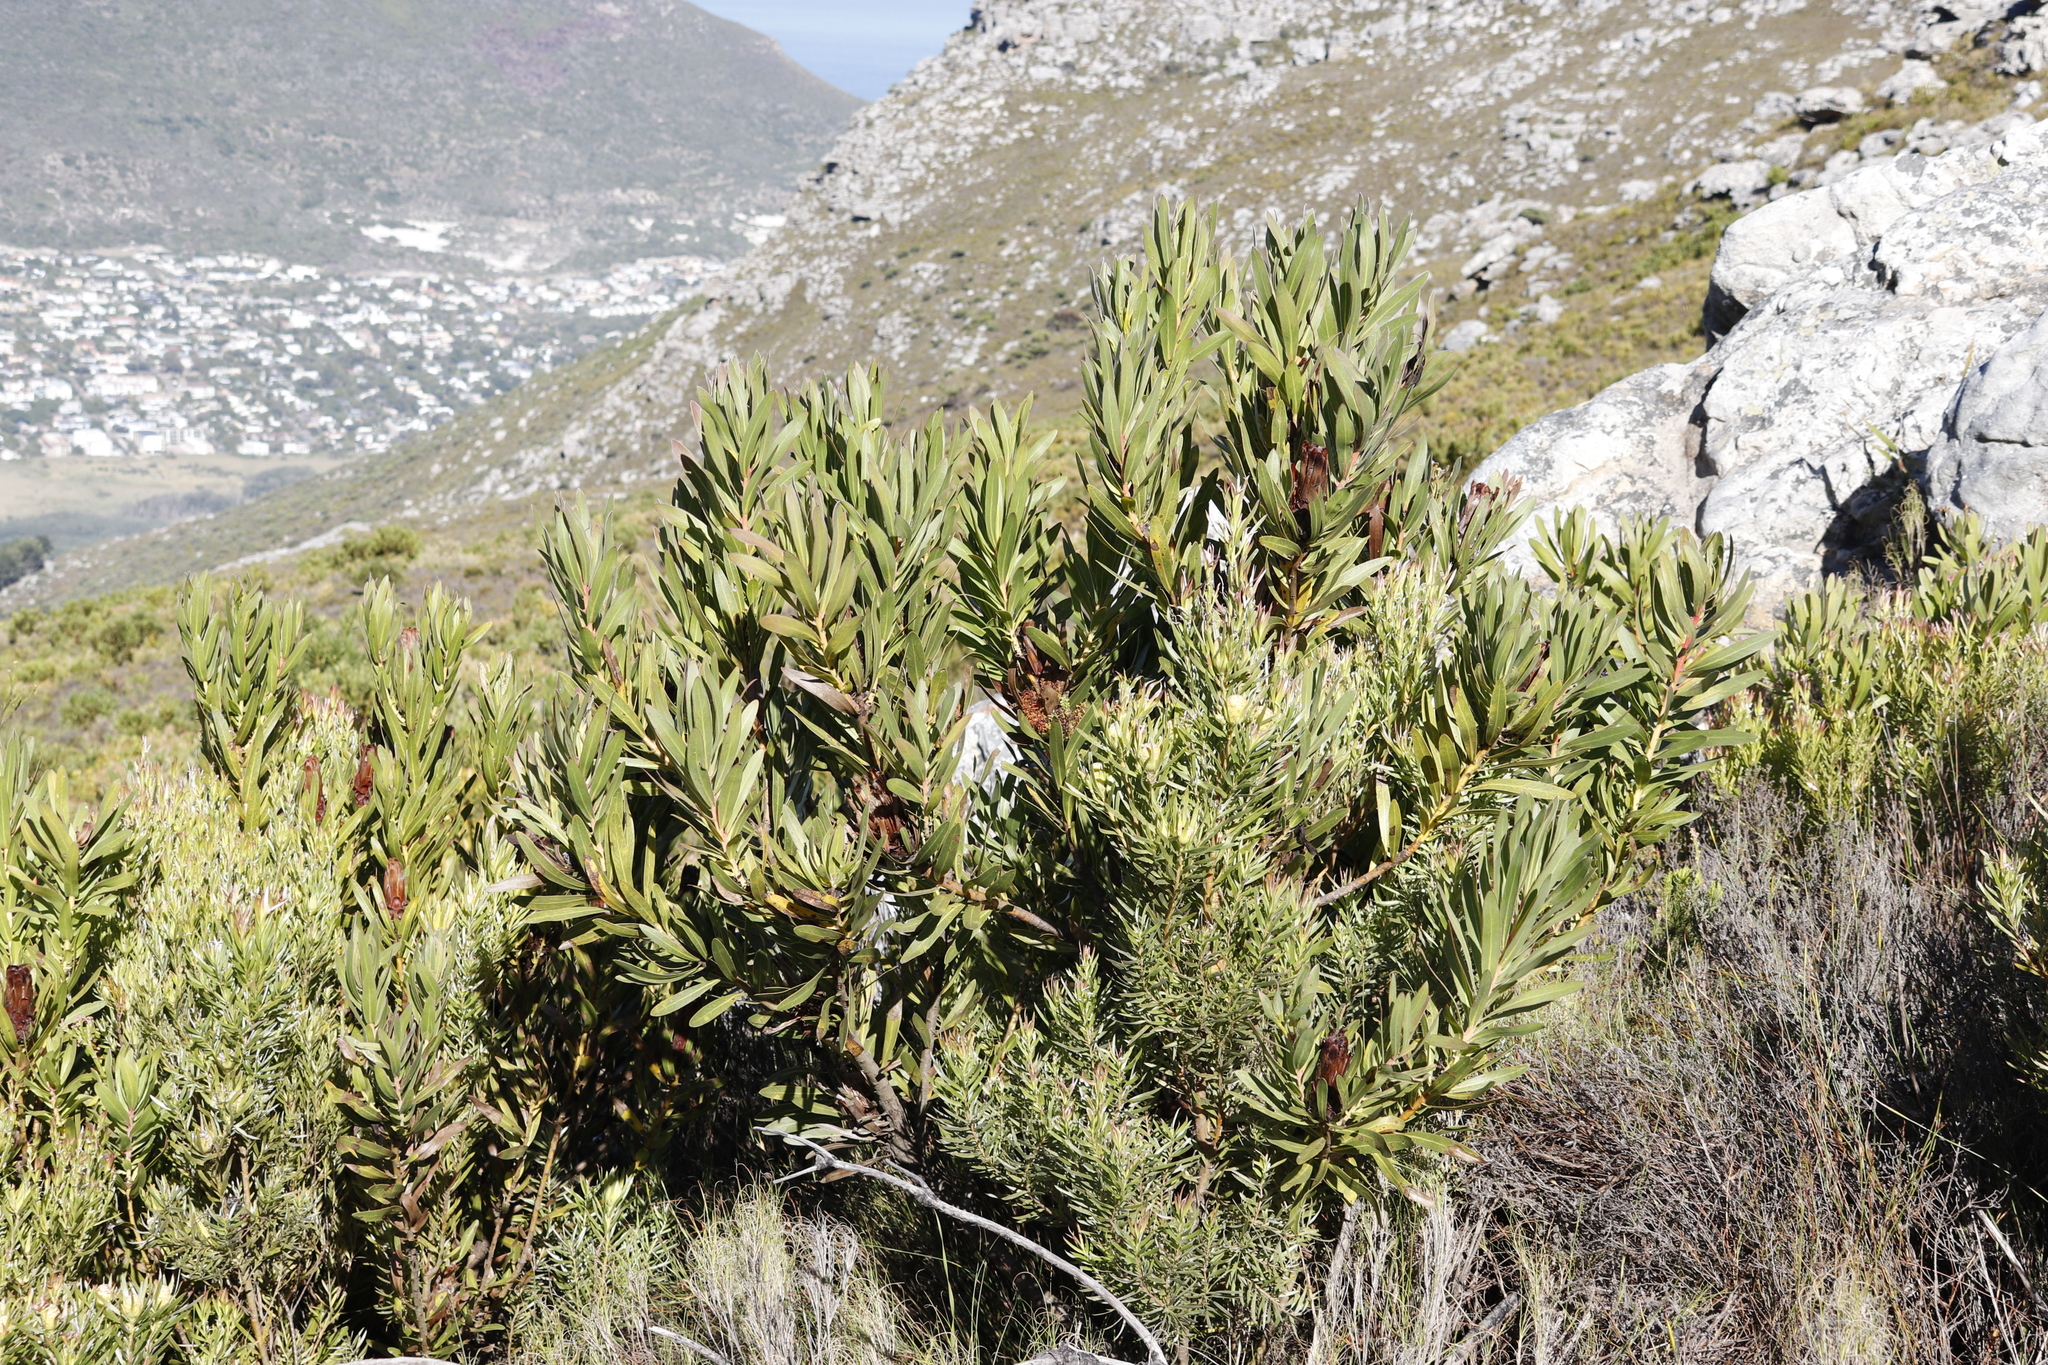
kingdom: Plantae
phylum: Tracheophyta
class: Magnoliopsida
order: Proteales
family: Proteaceae
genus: Leucadendron
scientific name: Leucadendron xanthoconus
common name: Sickle-leaf conebush
